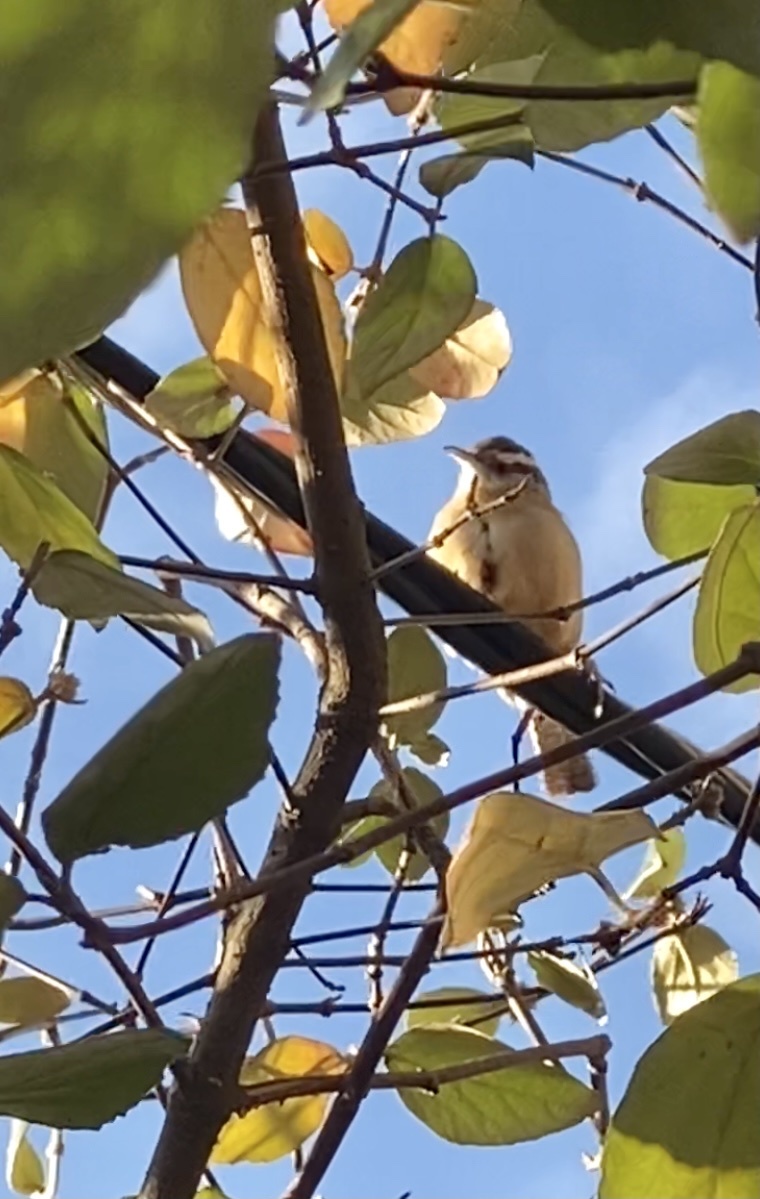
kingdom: Animalia
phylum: Chordata
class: Aves
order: Passeriformes
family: Troglodytidae
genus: Thryothorus
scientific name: Thryothorus ludovicianus
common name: Carolina wren
